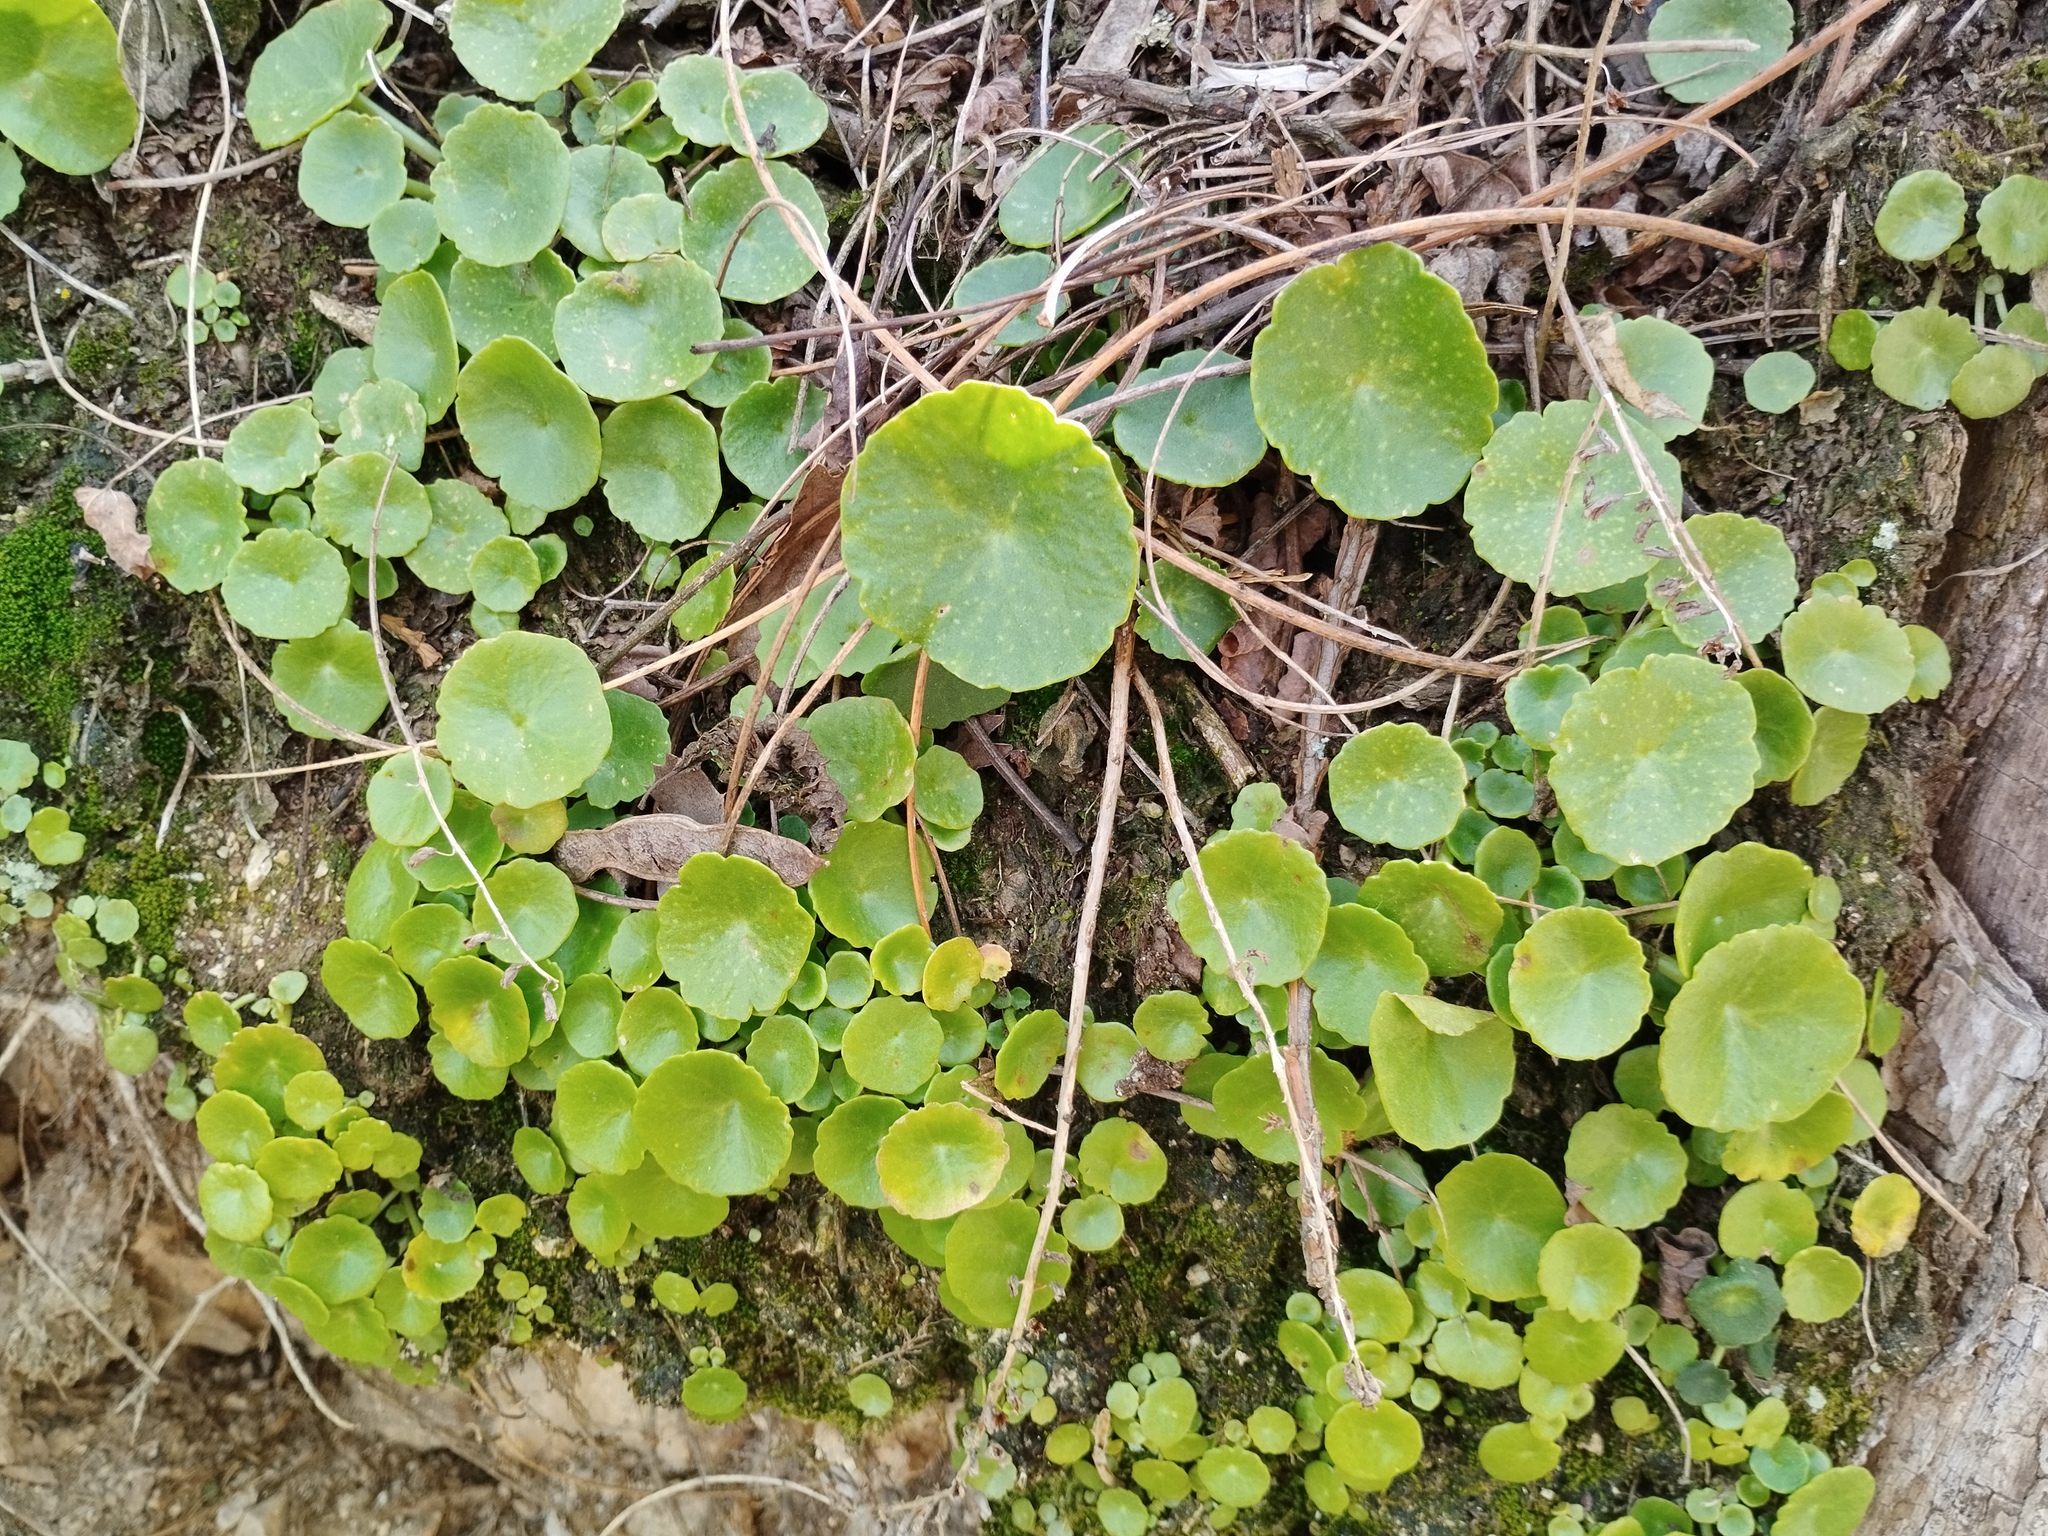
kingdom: Plantae
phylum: Tracheophyta
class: Magnoliopsida
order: Saxifragales
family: Crassulaceae
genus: Umbilicus
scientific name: Umbilicus rupestris
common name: Navelwort
